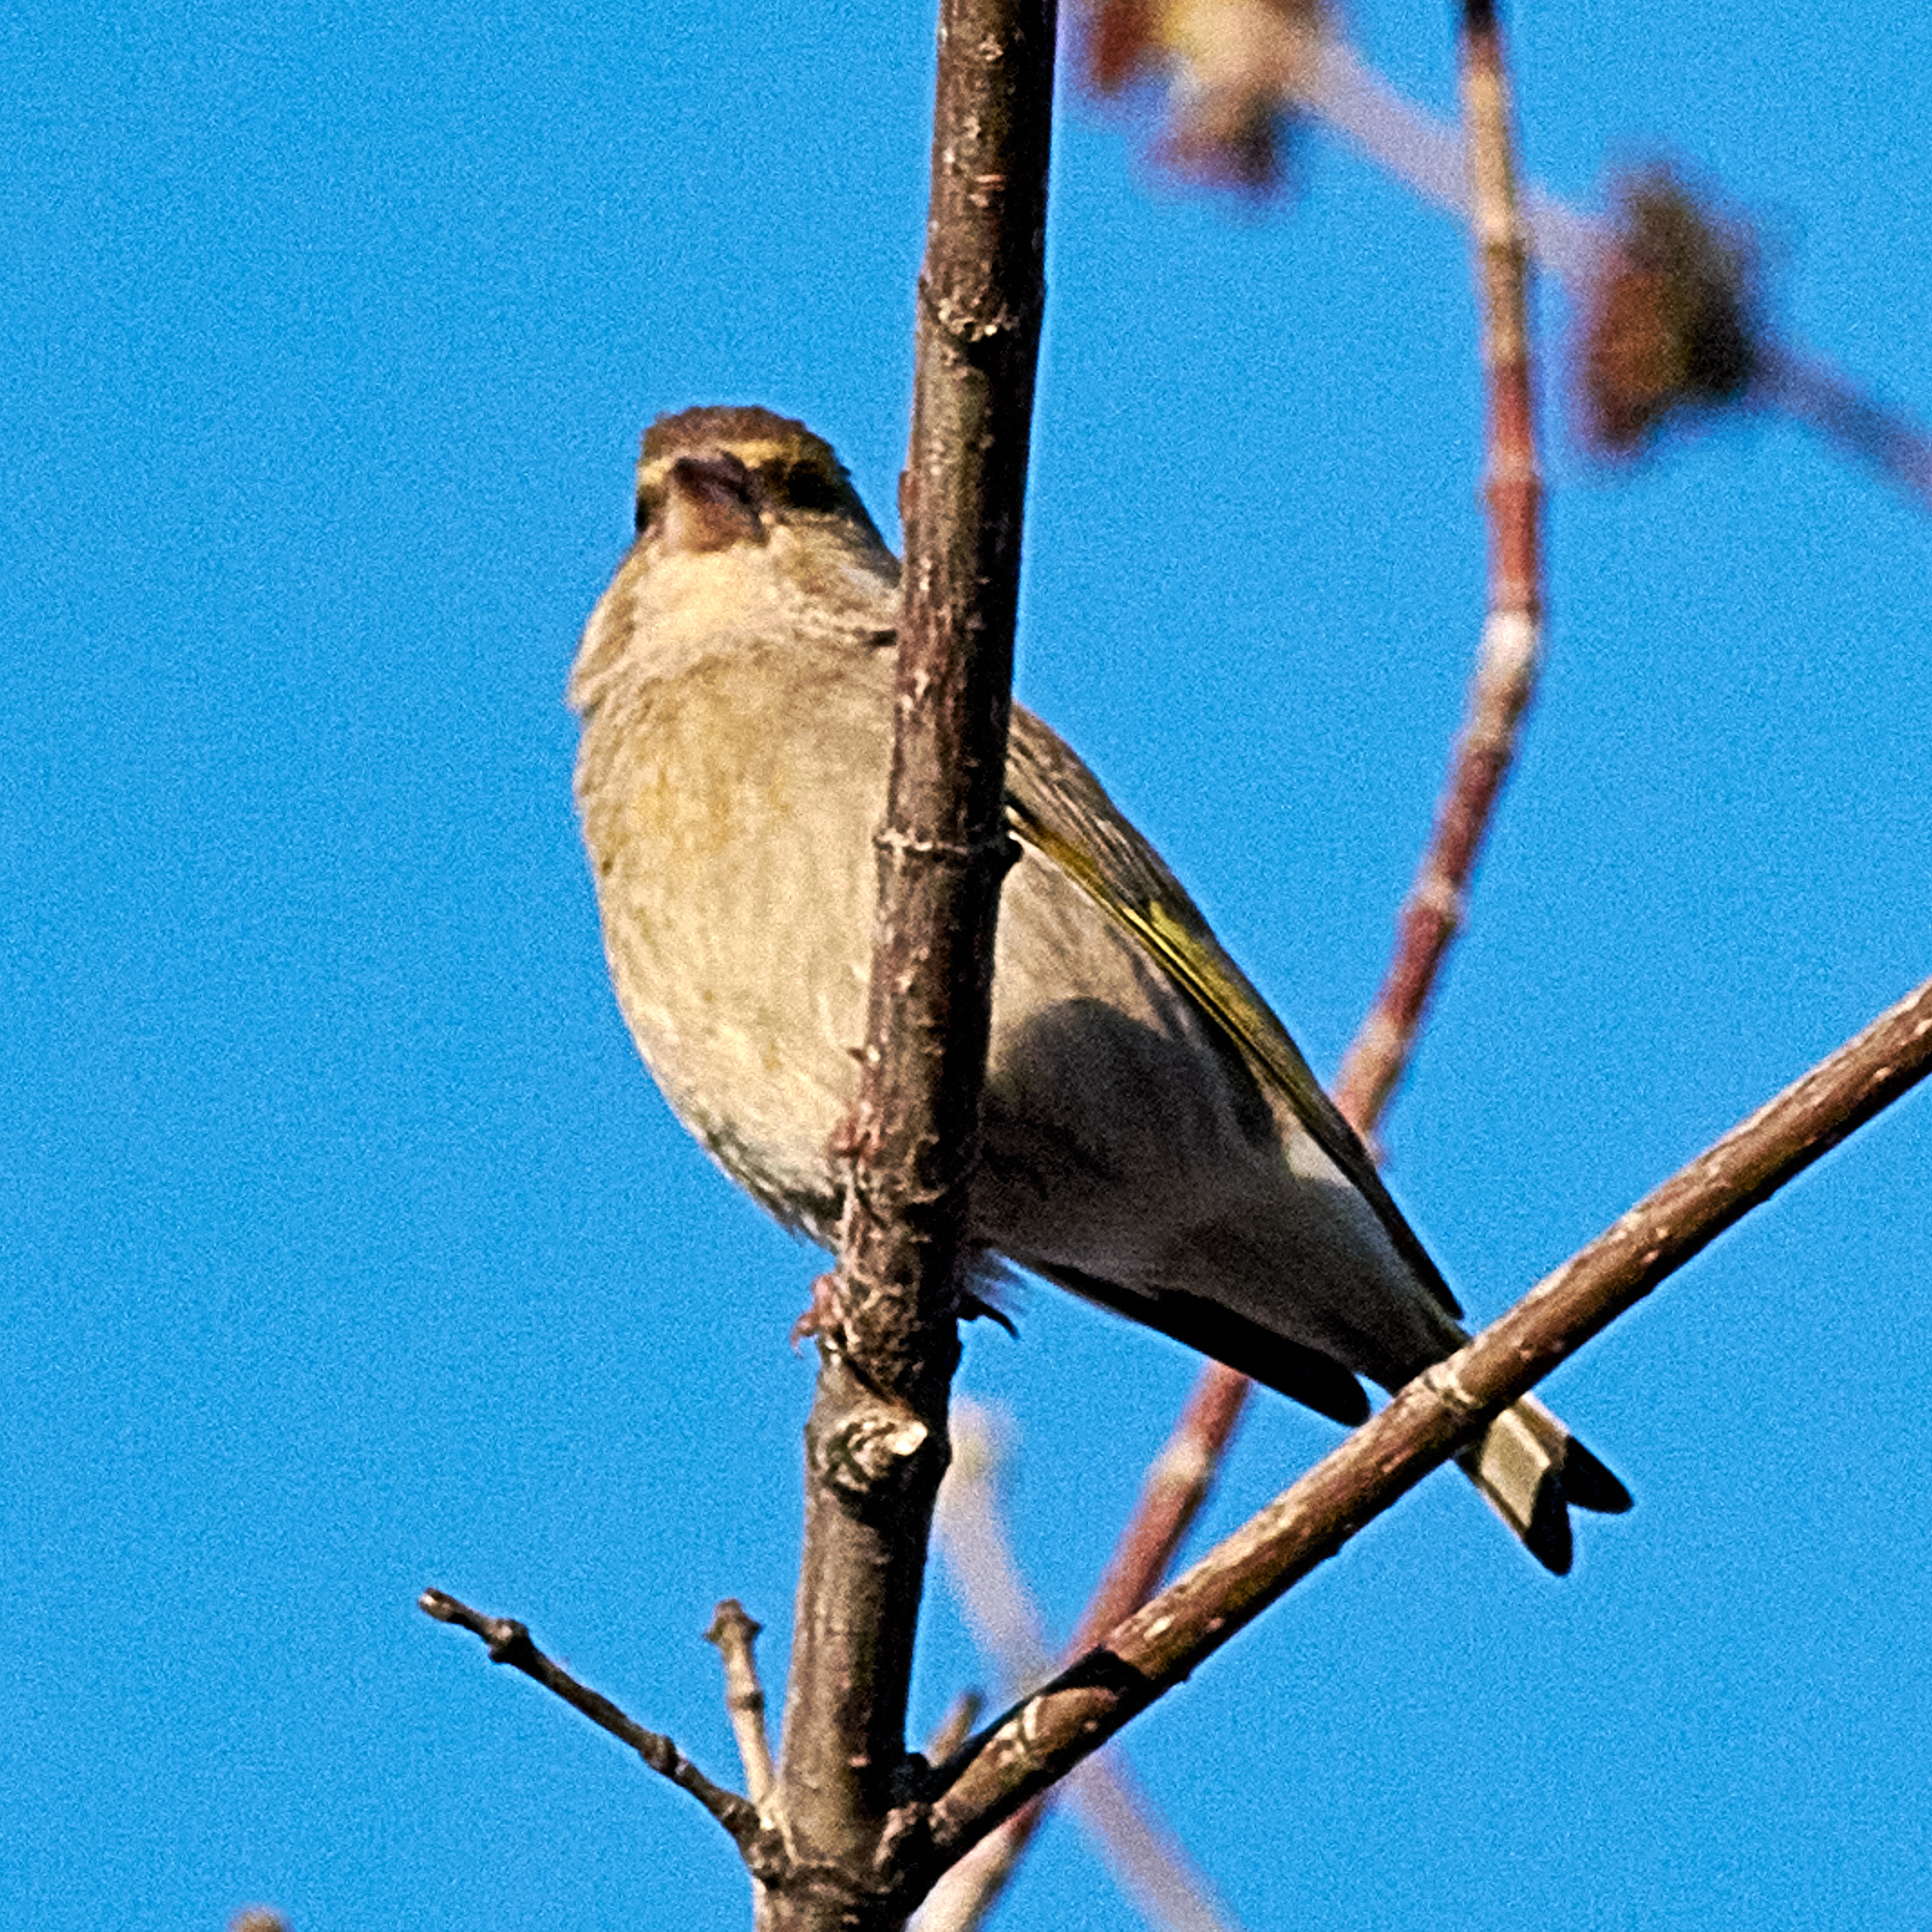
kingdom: Plantae
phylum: Tracheophyta
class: Liliopsida
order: Poales
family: Poaceae
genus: Chloris
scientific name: Chloris chloris
